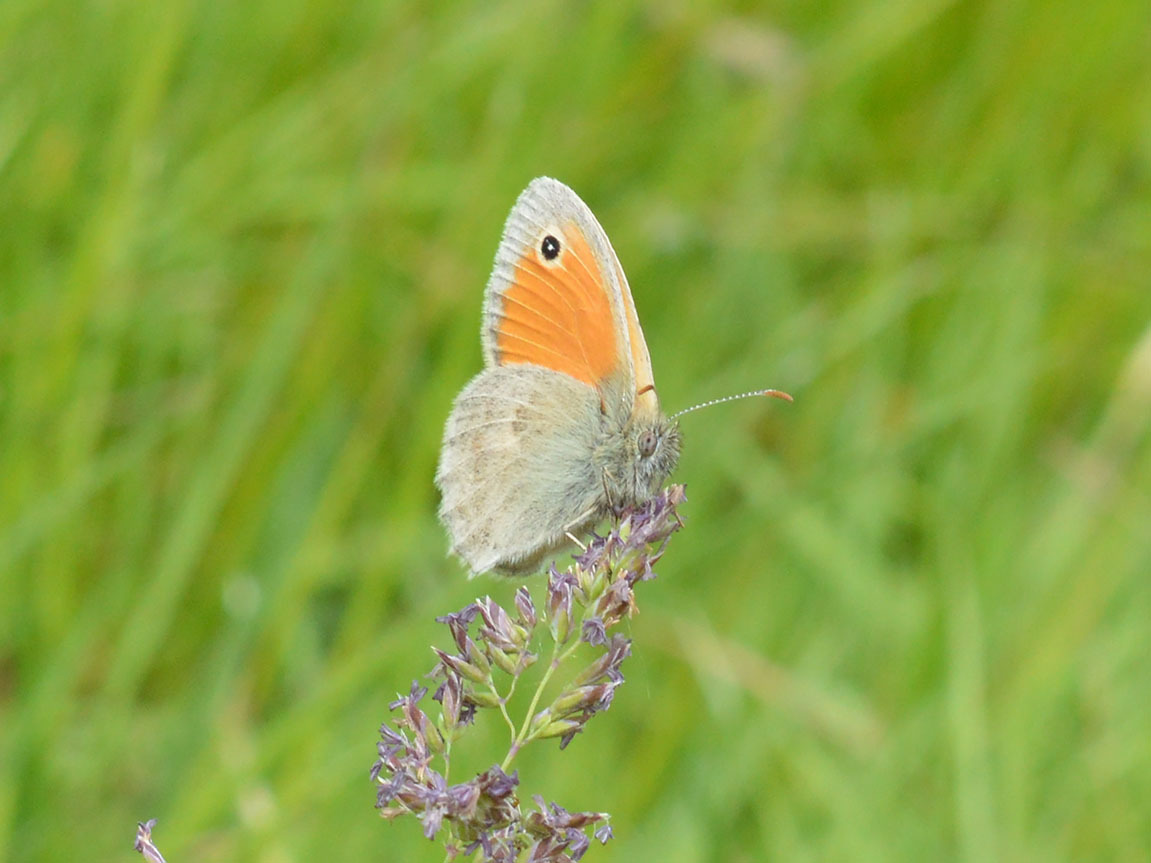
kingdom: Animalia
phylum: Arthropoda
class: Insecta
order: Lepidoptera
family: Nymphalidae
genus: Coenonympha
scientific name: Coenonympha pamphilus
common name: Small heath
